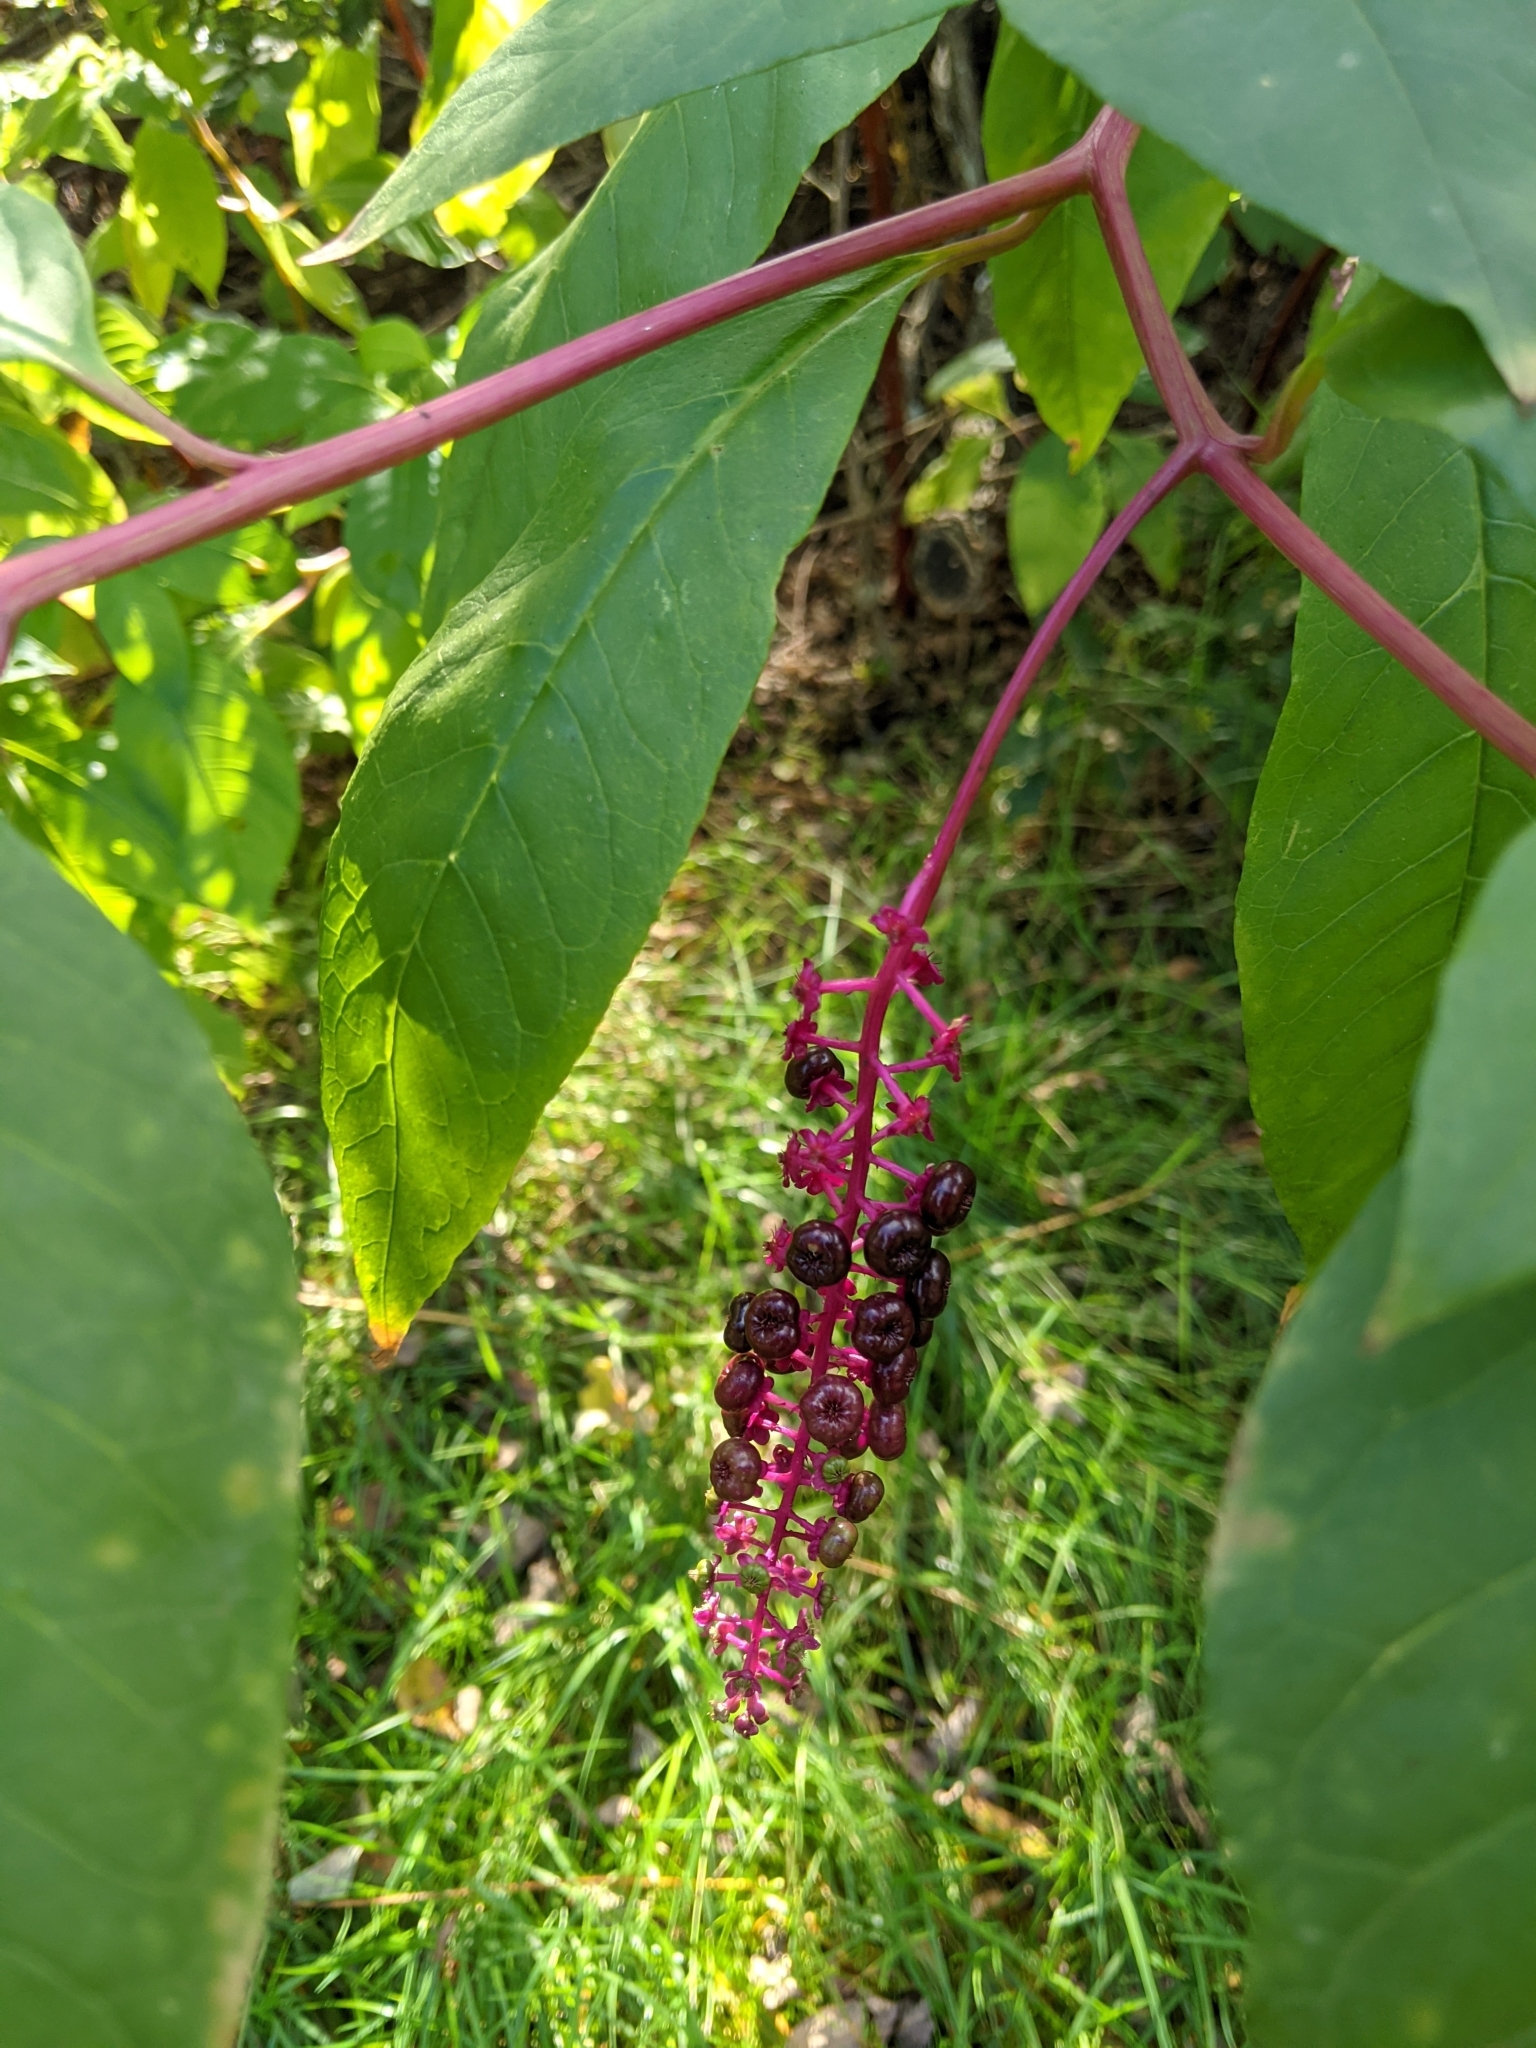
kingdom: Plantae
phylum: Tracheophyta
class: Magnoliopsida
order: Caryophyllales
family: Phytolaccaceae
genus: Phytolacca
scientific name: Phytolacca americana
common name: American pokeweed
